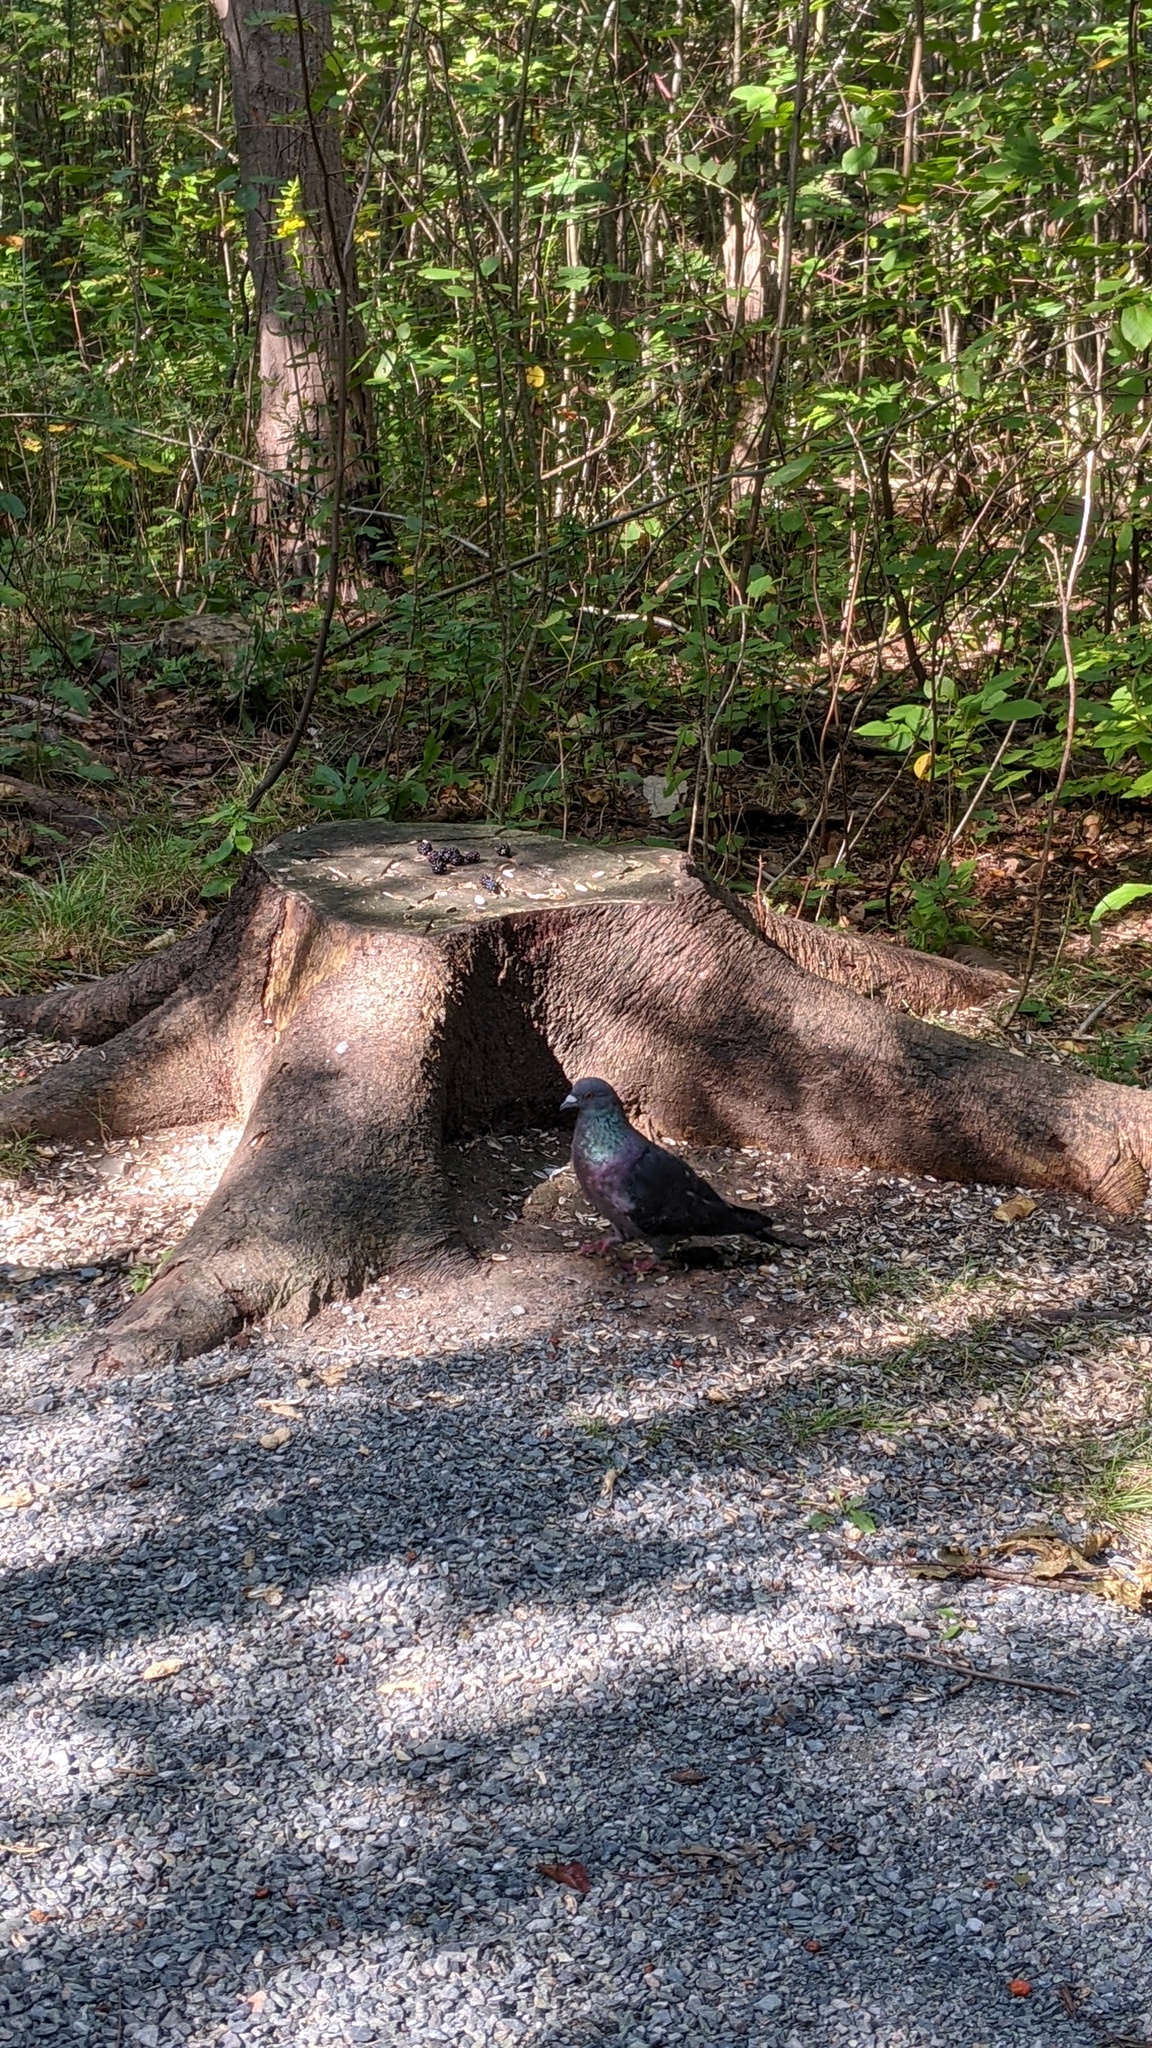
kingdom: Animalia
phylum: Chordata
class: Aves
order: Columbiformes
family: Columbidae
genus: Columba
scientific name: Columba livia
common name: Rock pigeon
